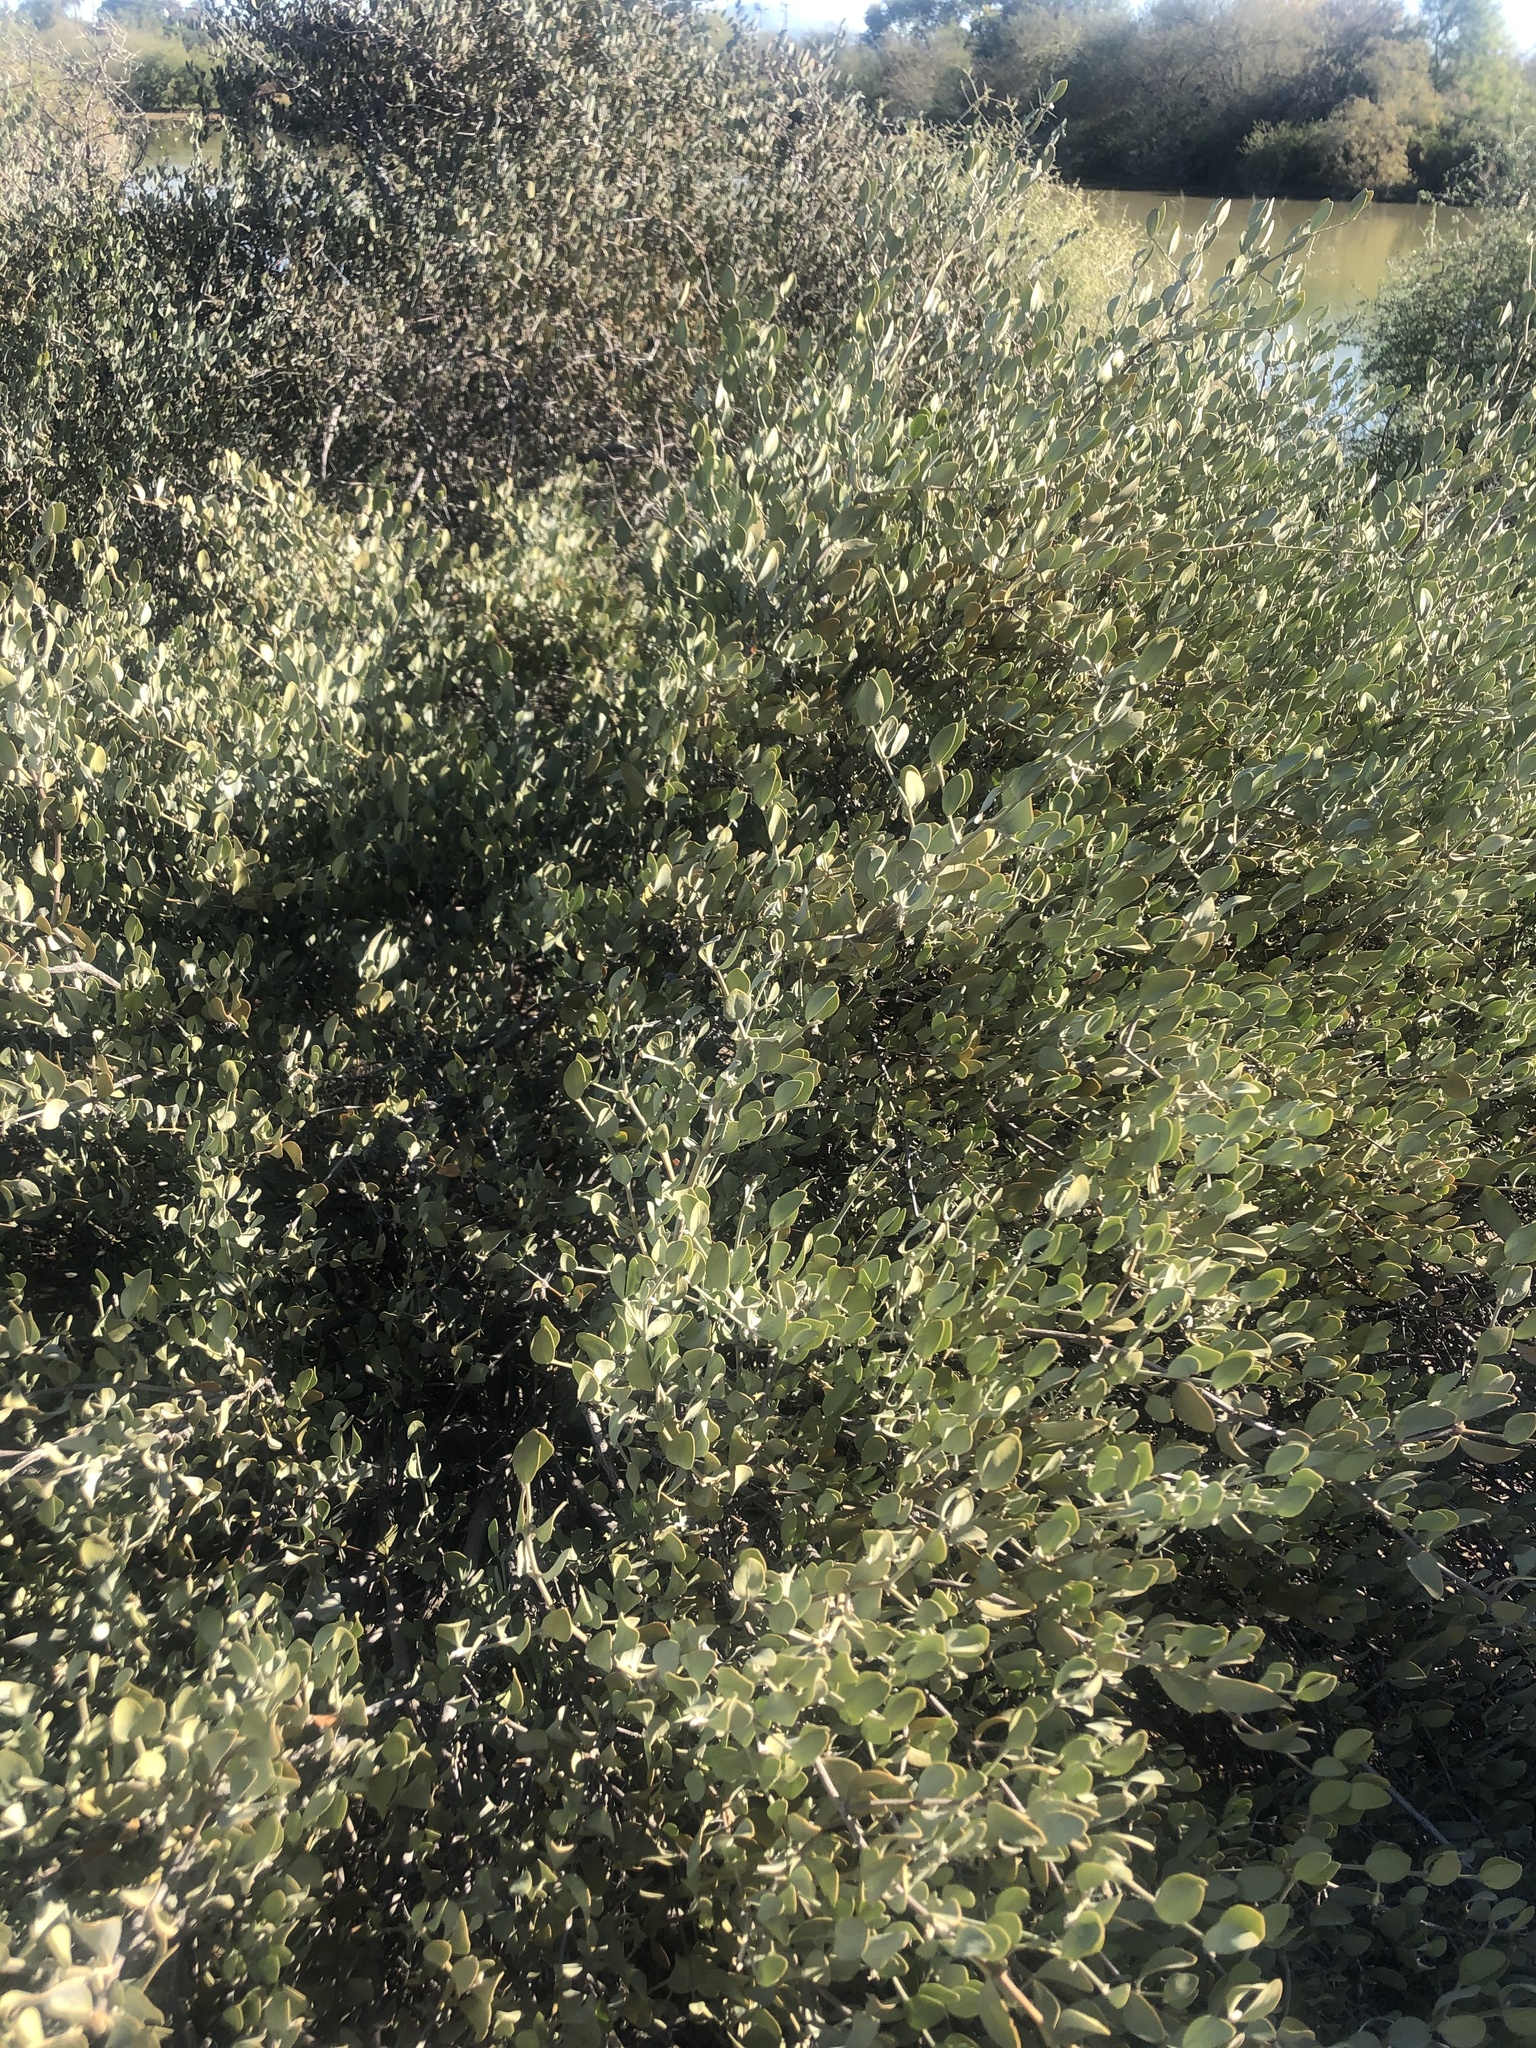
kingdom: Plantae
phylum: Tracheophyta
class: Magnoliopsida
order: Caryophyllales
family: Simmondsiaceae
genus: Simmondsia
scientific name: Simmondsia chinensis
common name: Jojoba
